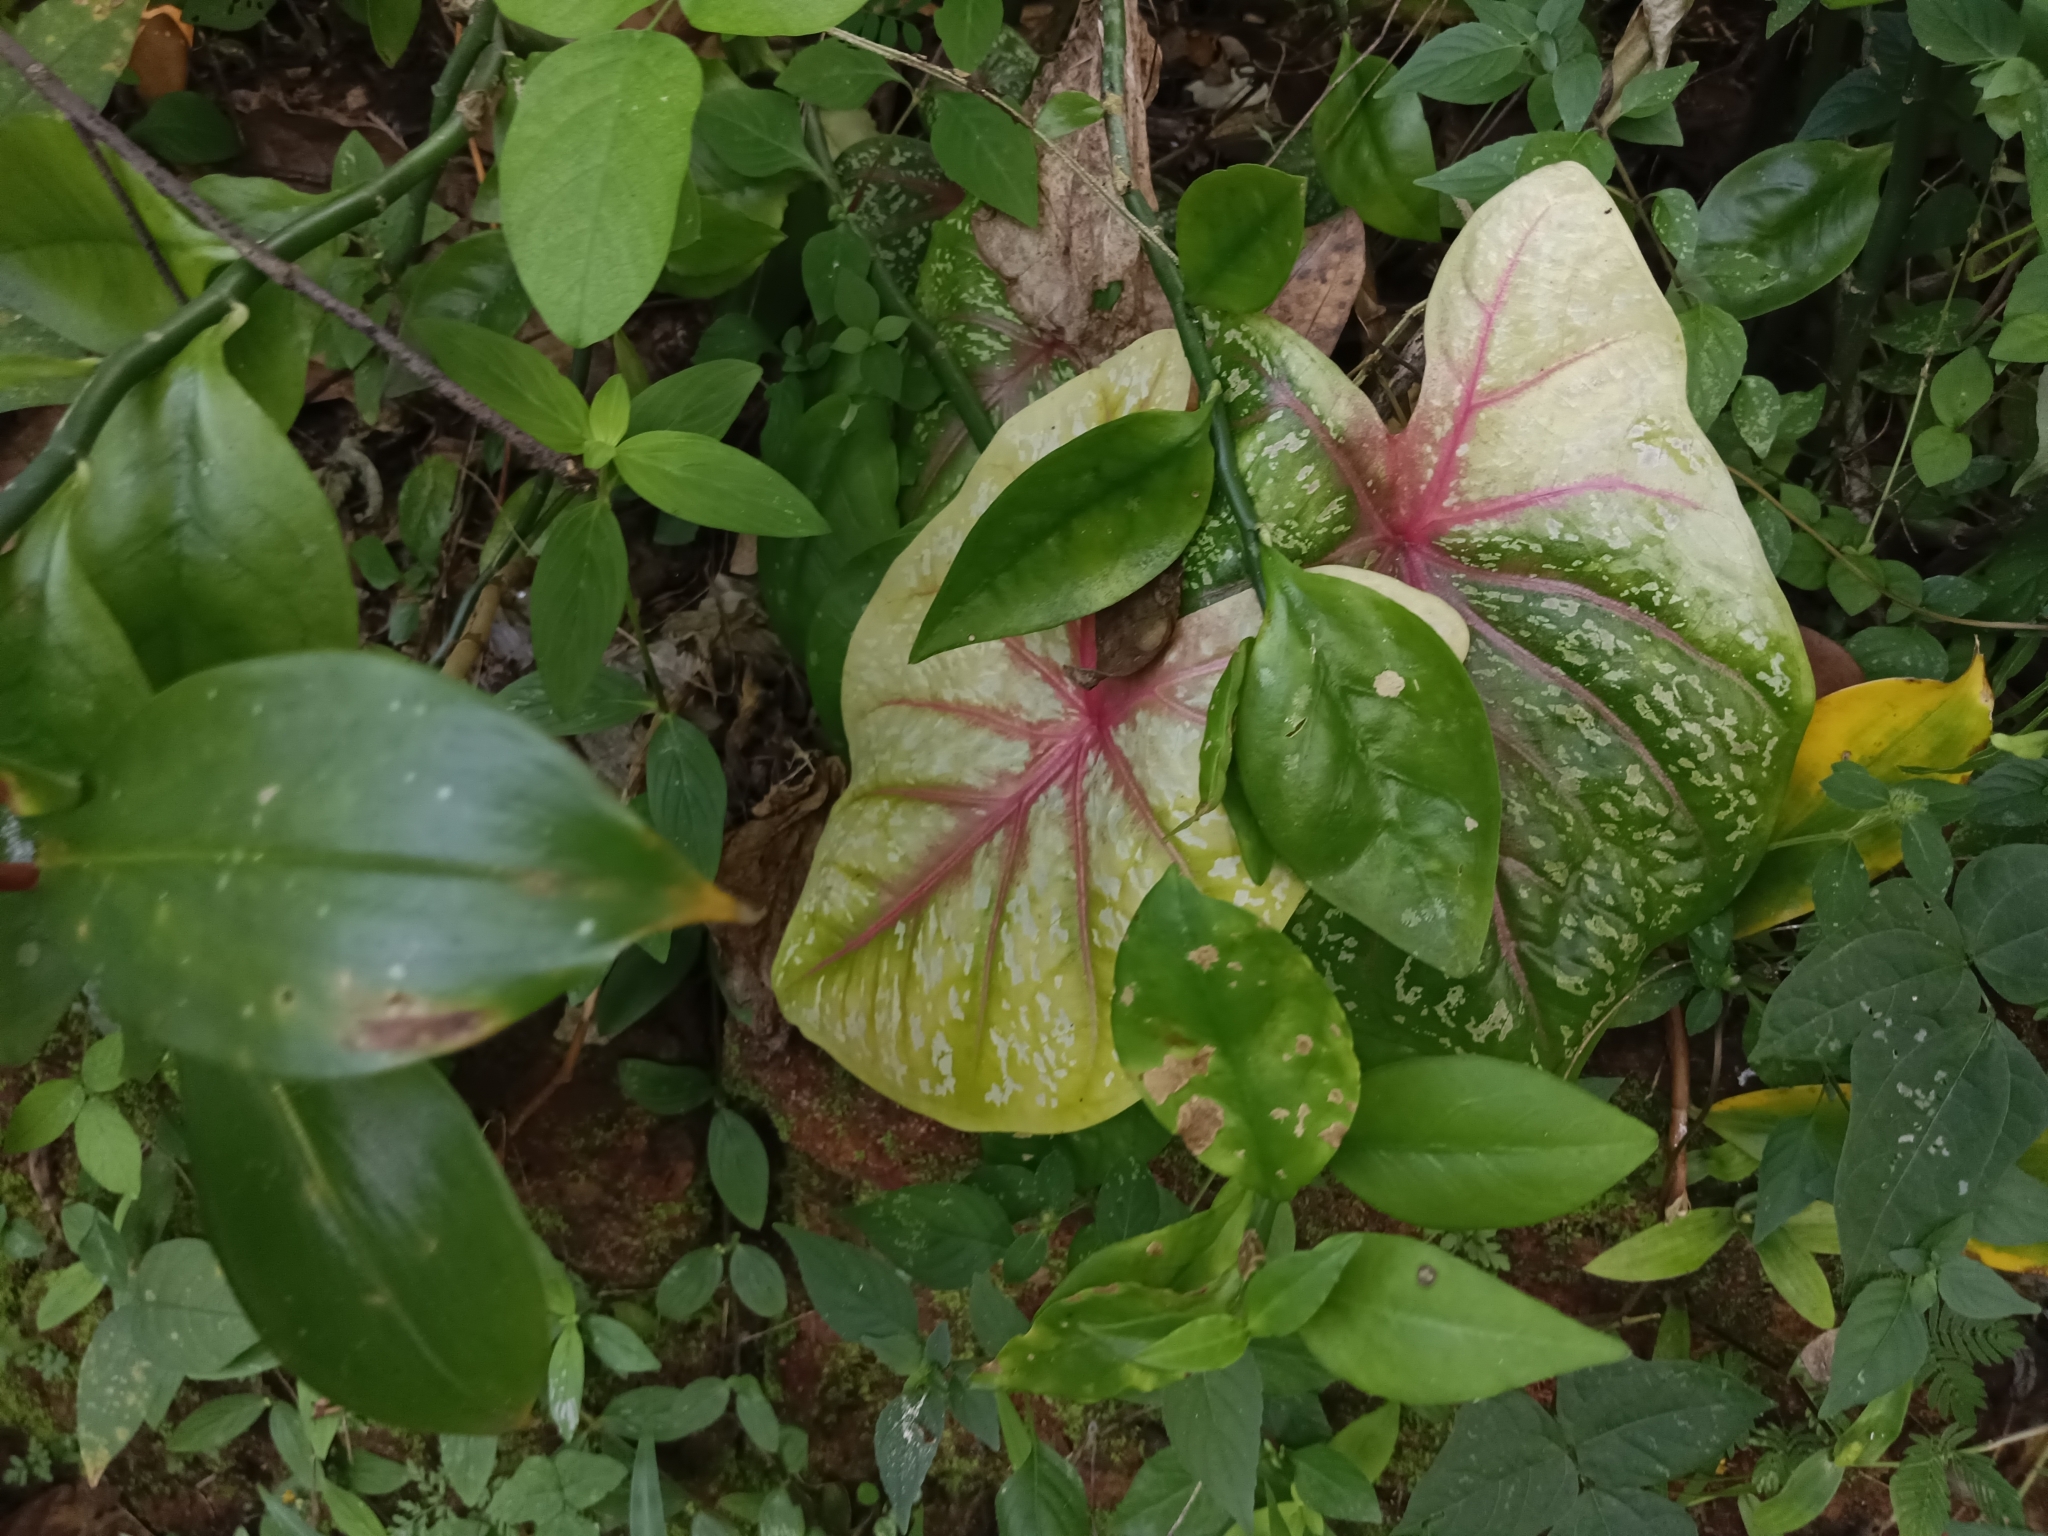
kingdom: Plantae
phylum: Tracheophyta
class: Liliopsida
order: Alismatales
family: Araceae
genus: Caladium
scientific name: Caladium bicolor
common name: Artist's pallet
